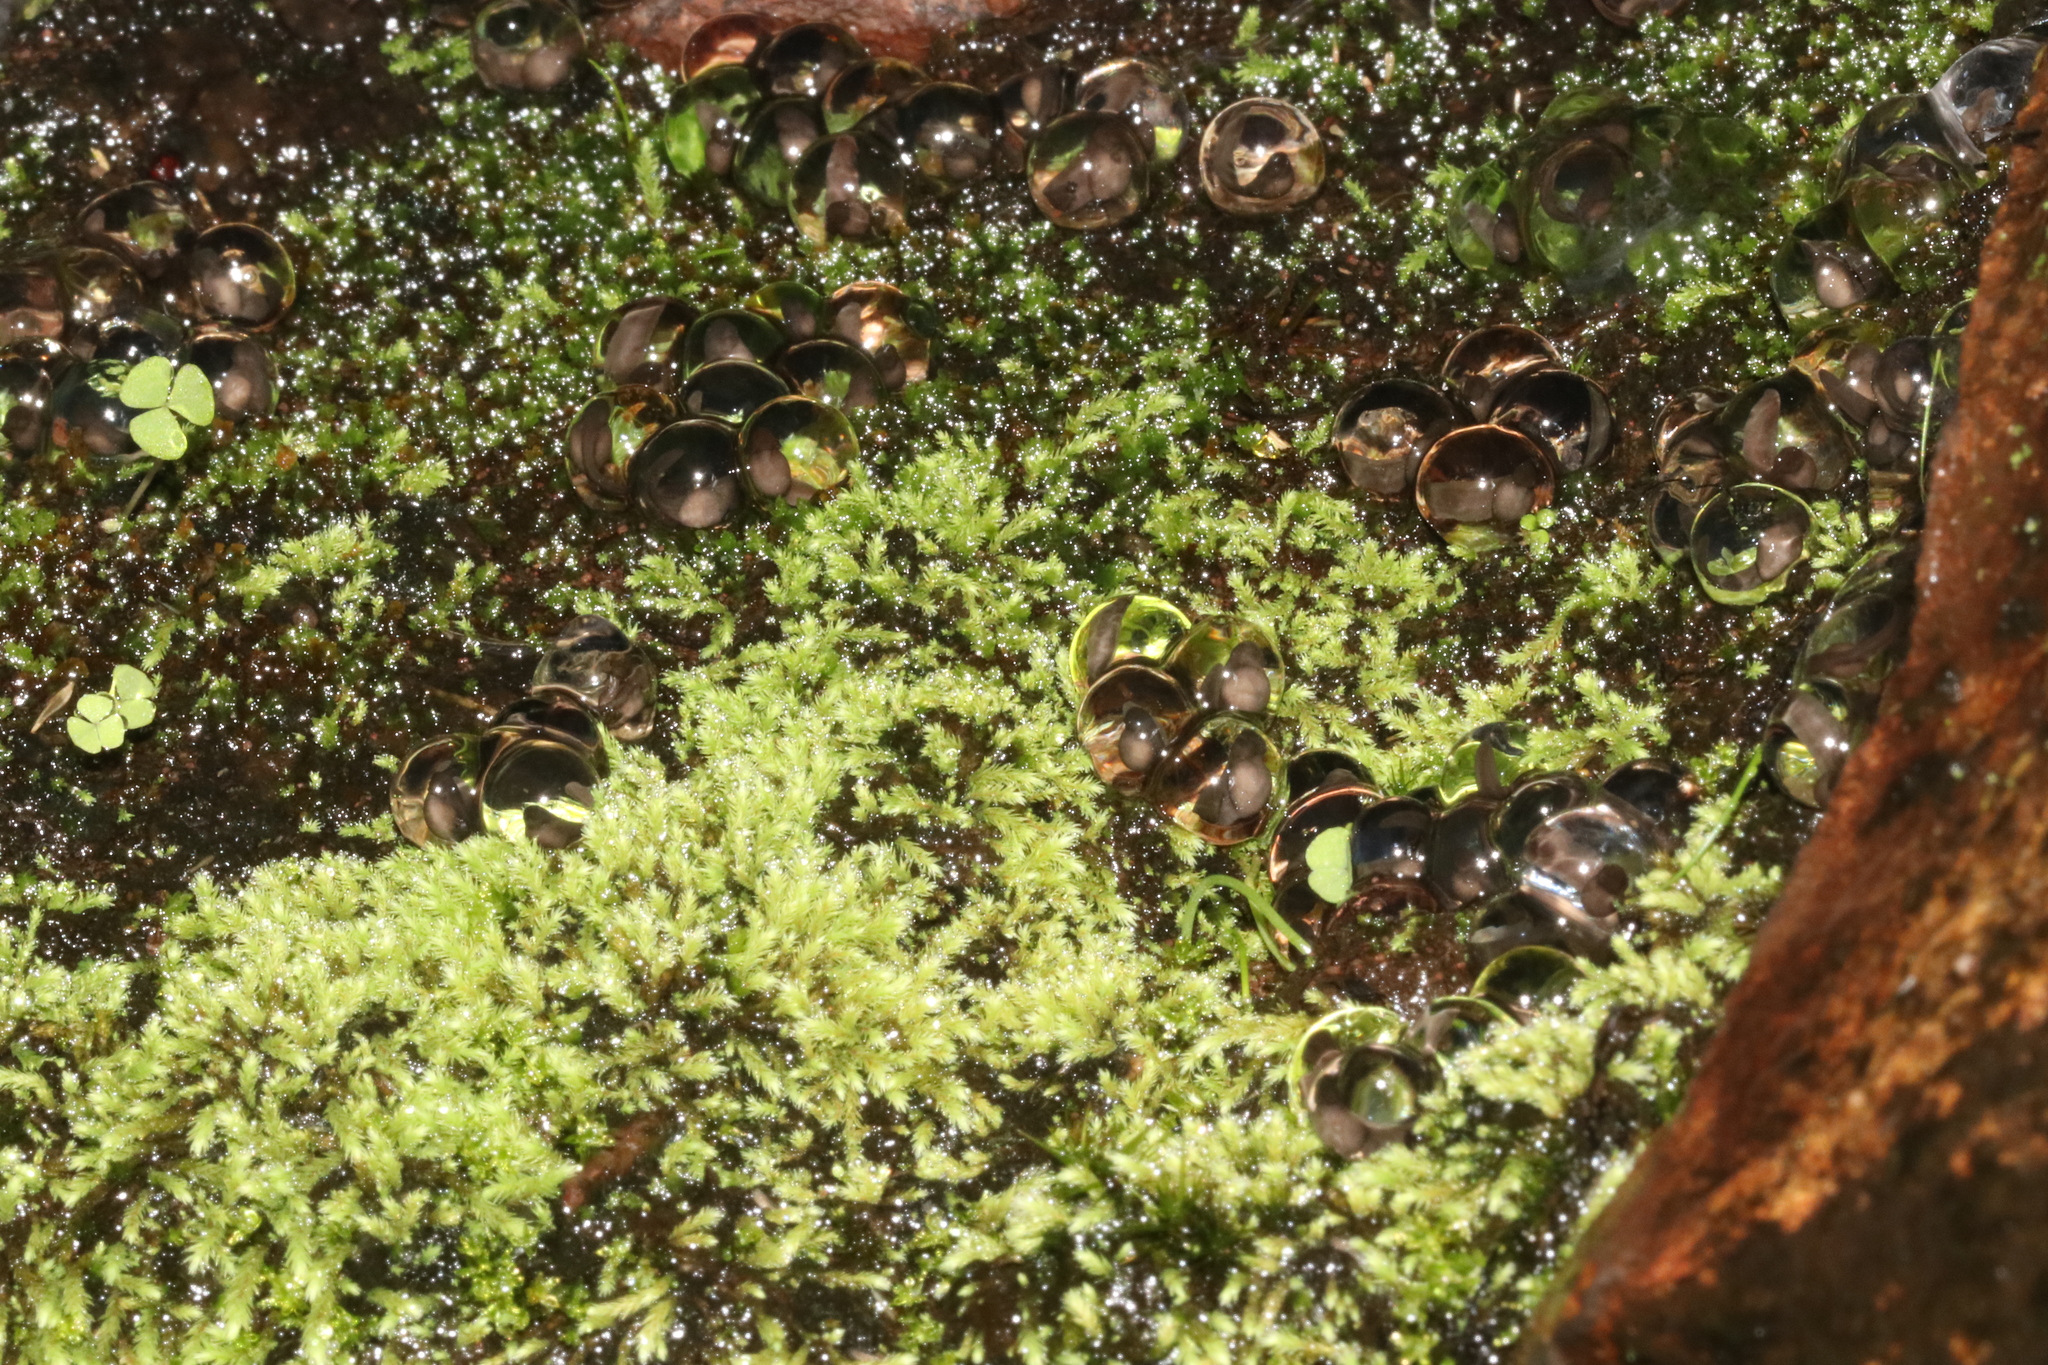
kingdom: Animalia
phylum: Chordata
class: Amphibia
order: Anura
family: Pyxicephalidae
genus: Strongylopus
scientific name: Strongylopus grayii
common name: Gray's stream frog
